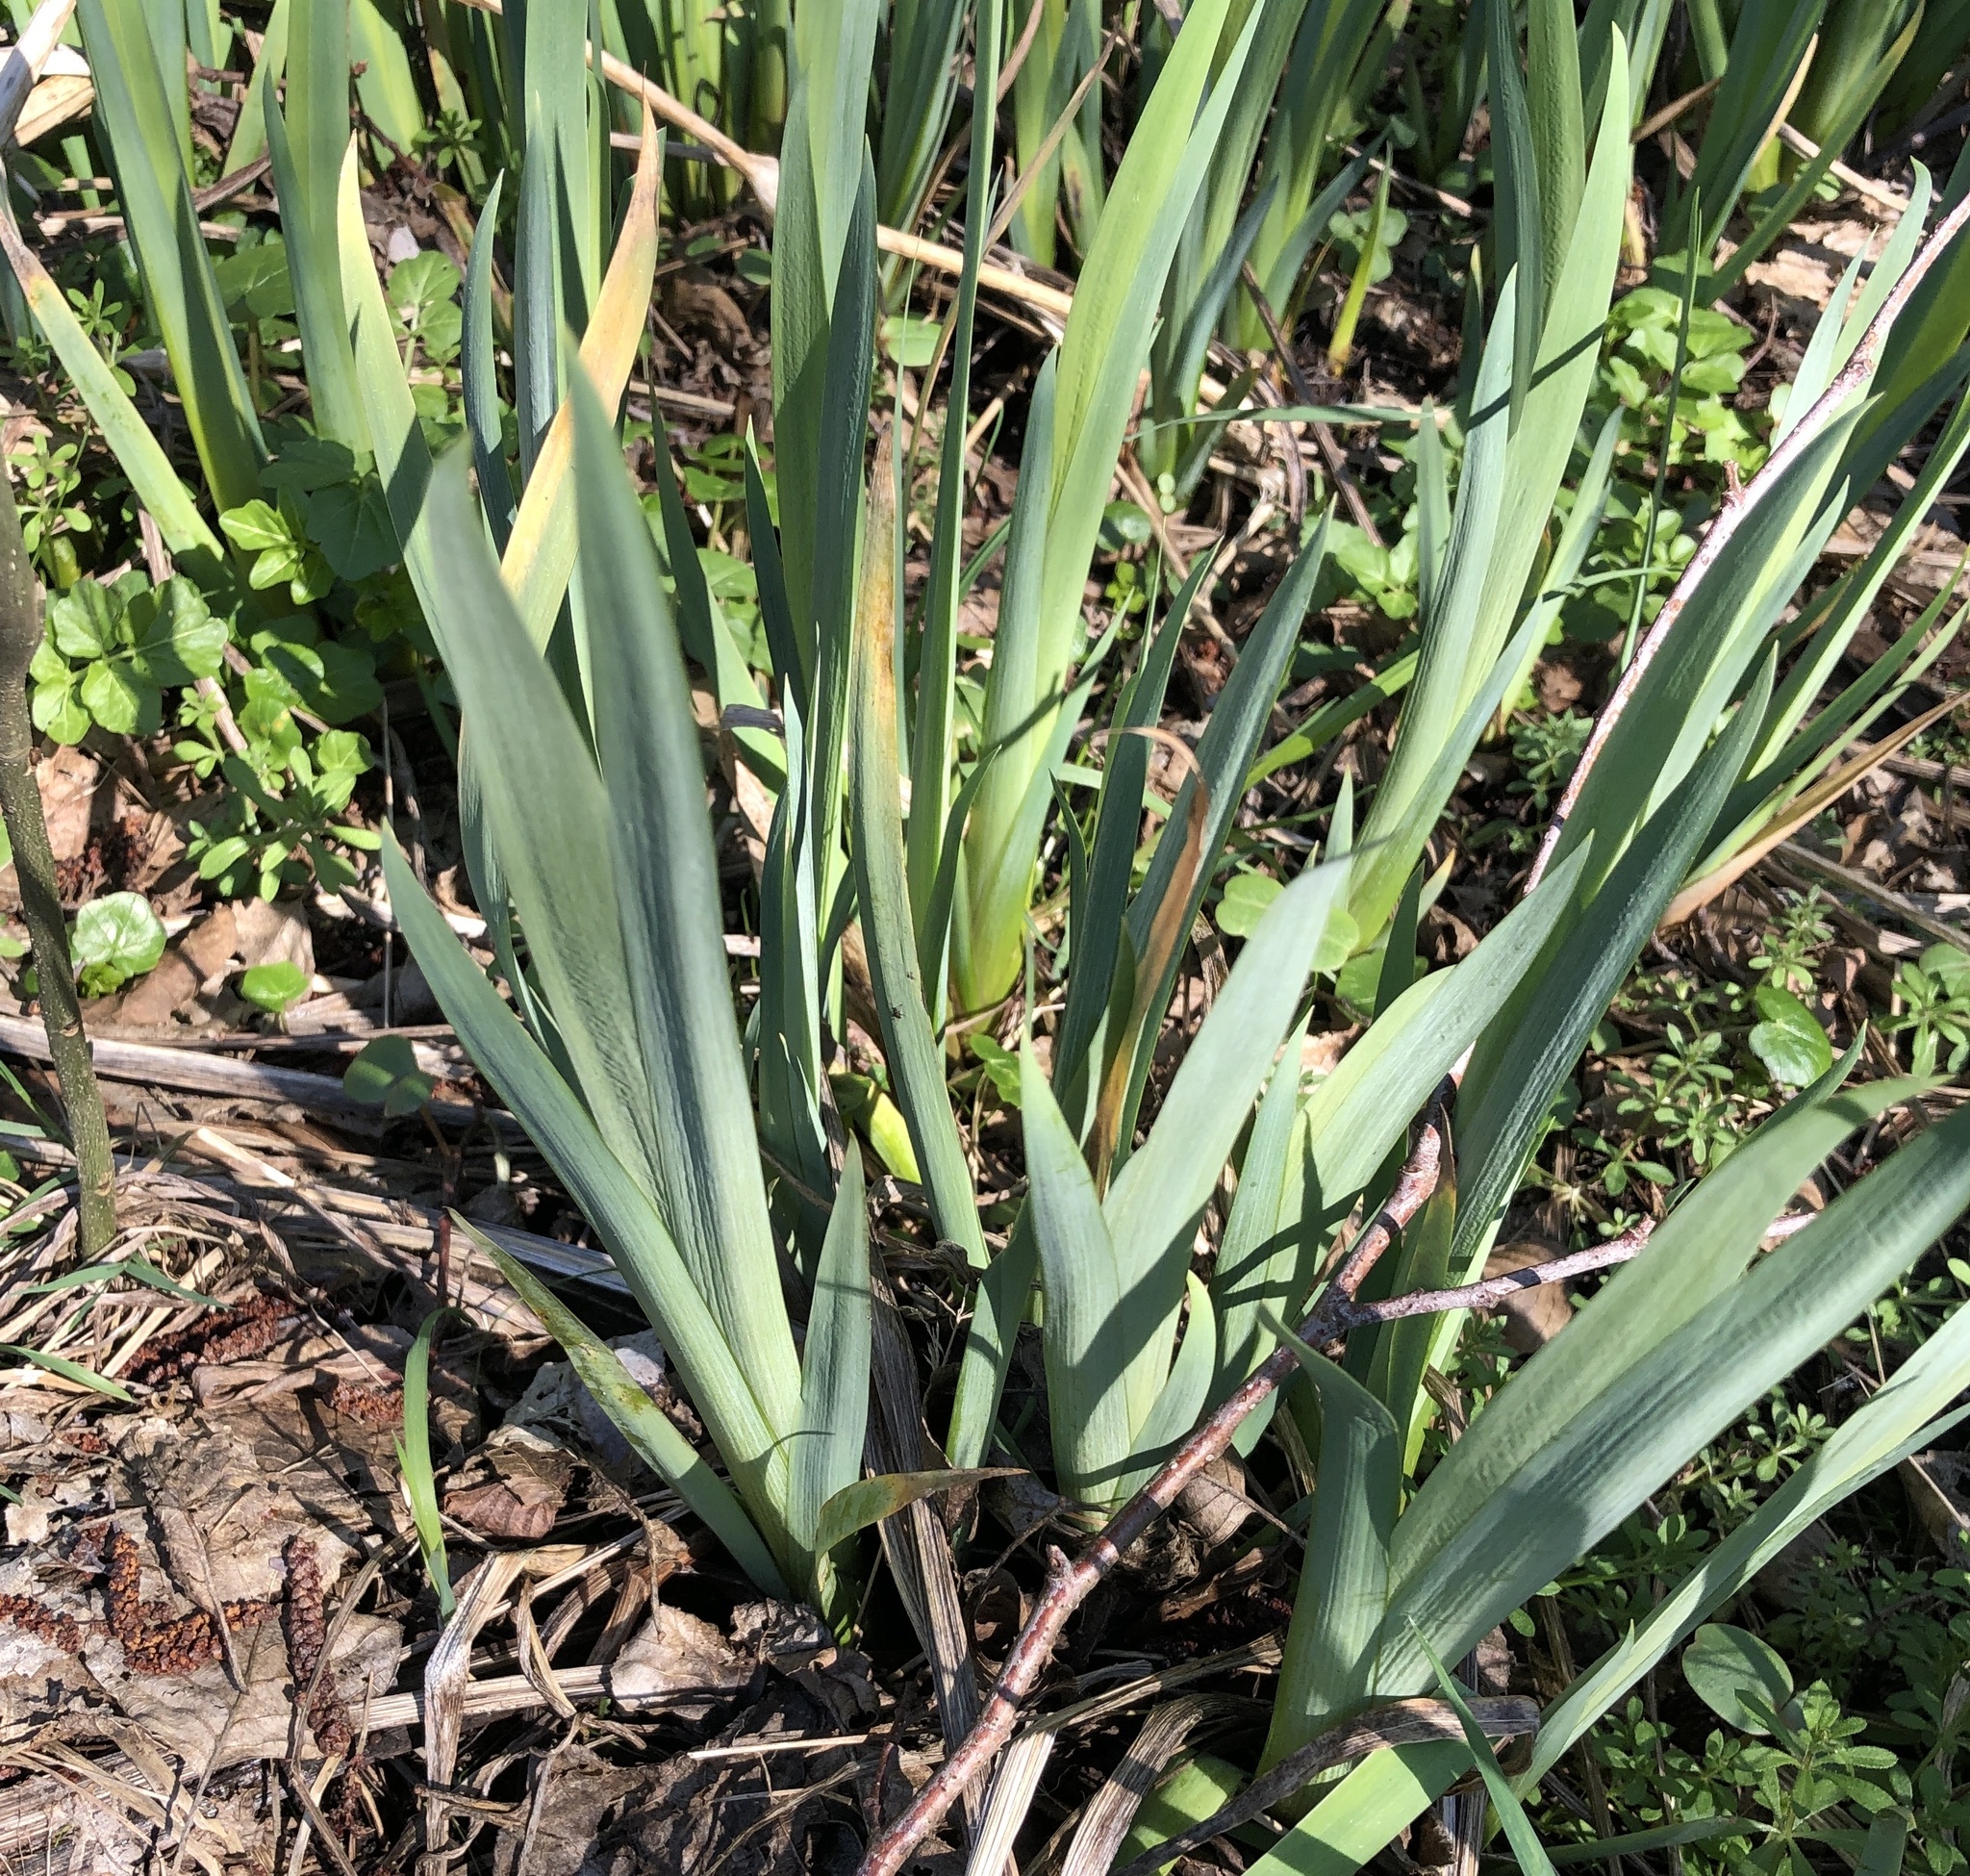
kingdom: Plantae
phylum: Tracheophyta
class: Liliopsida
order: Asparagales
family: Iridaceae
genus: Iris
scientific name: Iris pseudacorus
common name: Yellow flag
